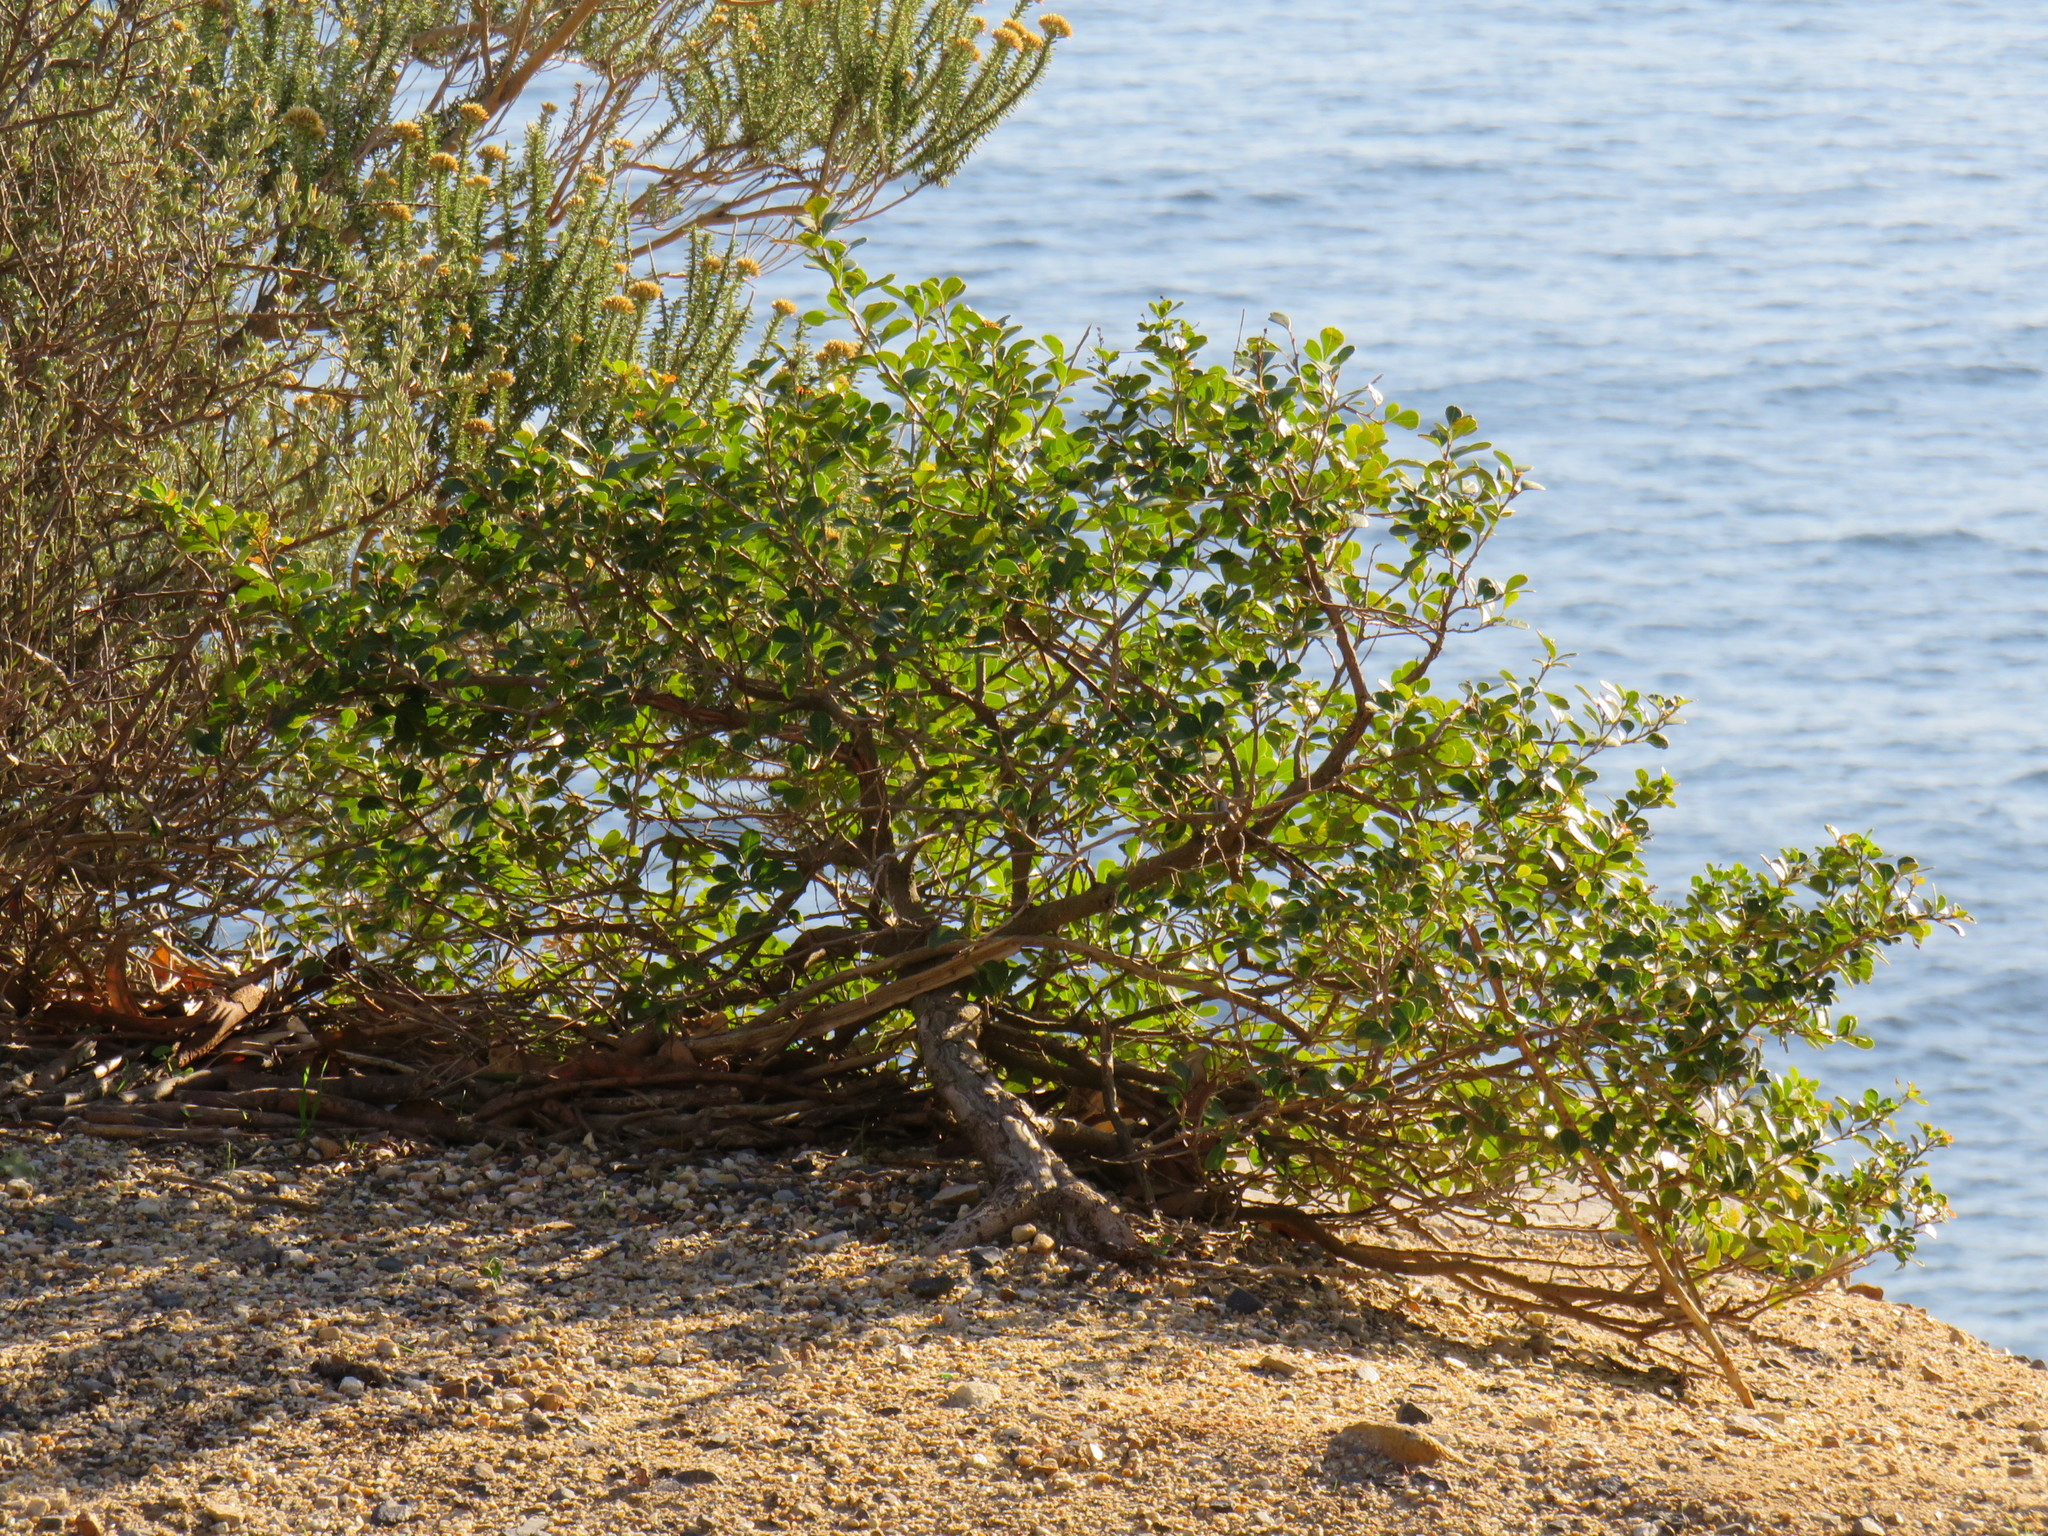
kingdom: Plantae
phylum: Tracheophyta
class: Magnoliopsida
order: Sapindales
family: Anacardiaceae
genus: Searsia
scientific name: Searsia crenata
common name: Crowberry
